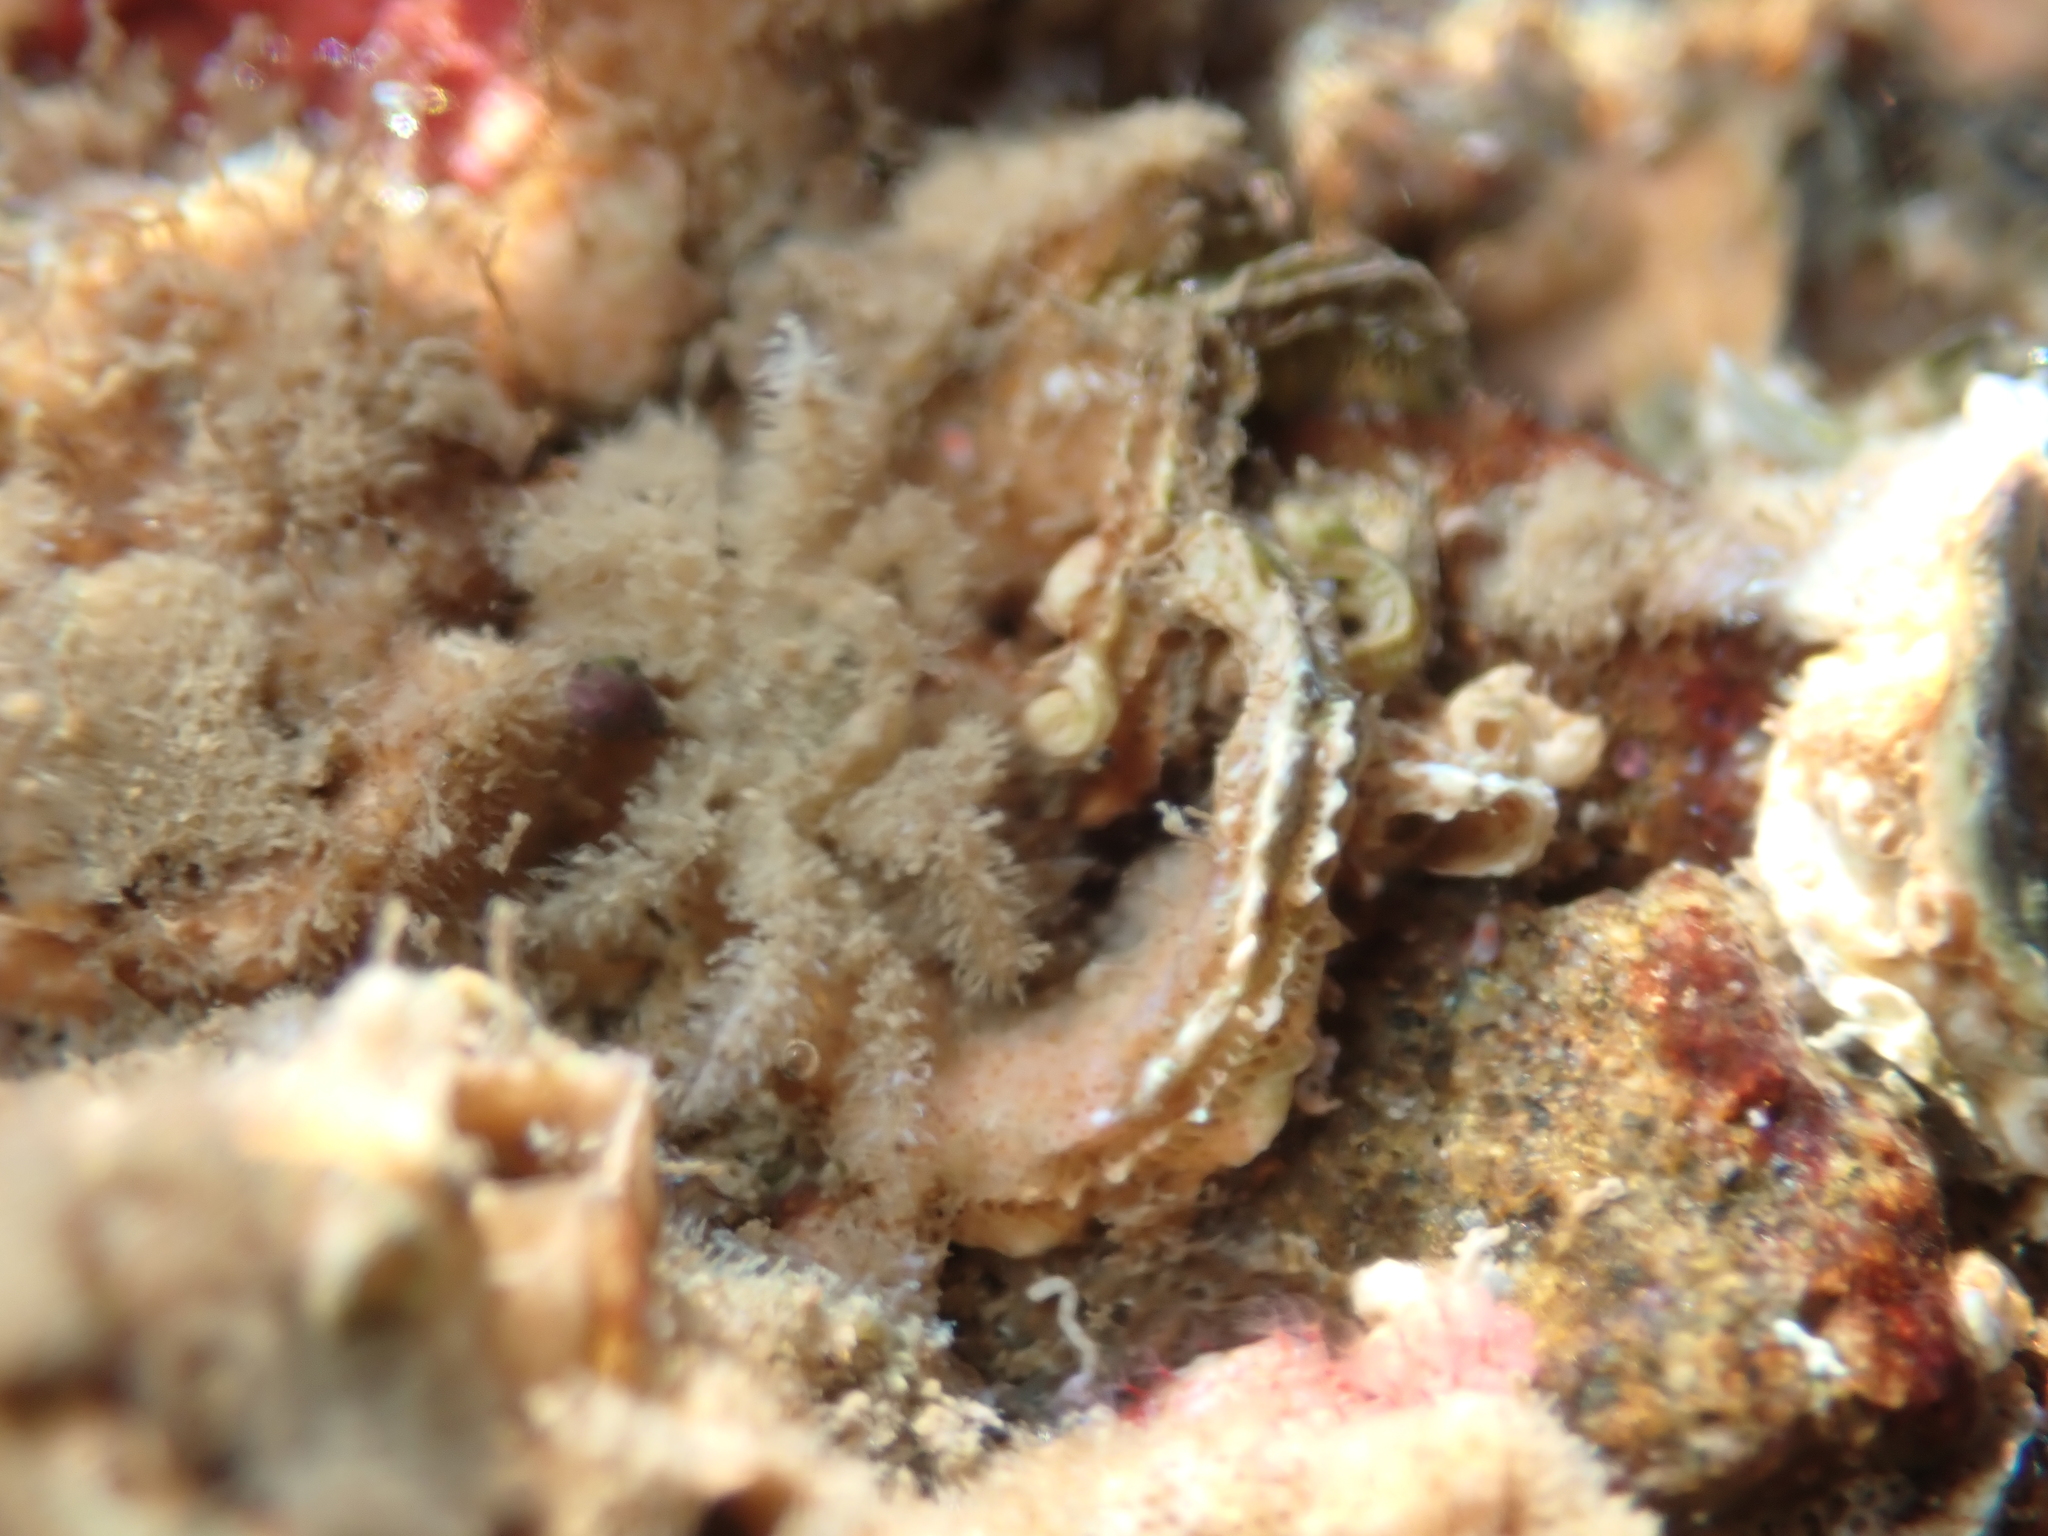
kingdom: Animalia
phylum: Arthropoda
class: Malacostraca
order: Decapoda
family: Hymenosomatidae
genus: Neohymenicus
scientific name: Neohymenicus pubescens
